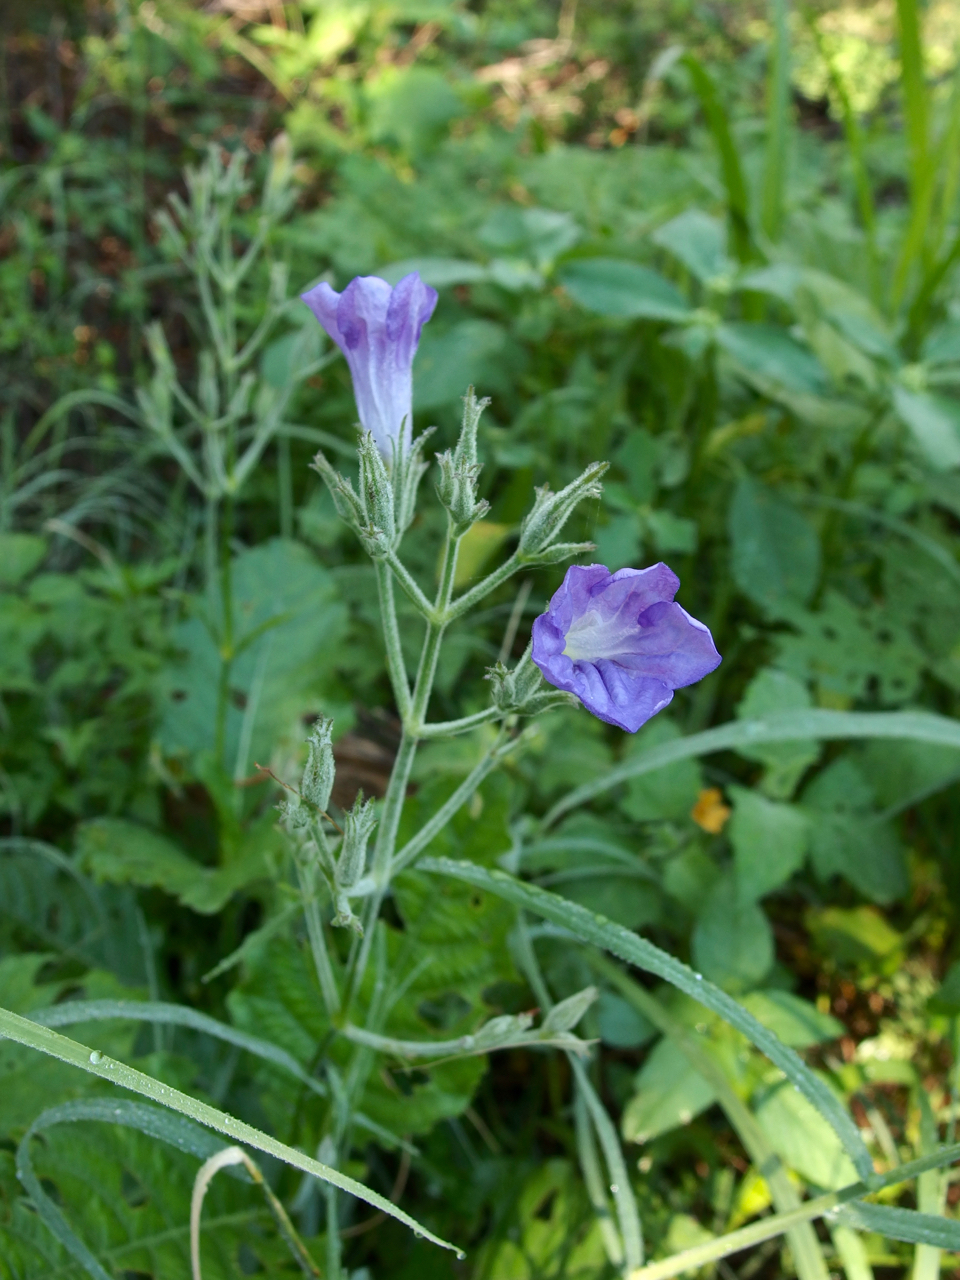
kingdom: Plantae
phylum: Tracheophyta
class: Magnoliopsida
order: Lamiales
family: Acanthaceae
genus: Ruellia
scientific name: Ruellia ciliatiflora
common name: Hairyflower wild petunia
